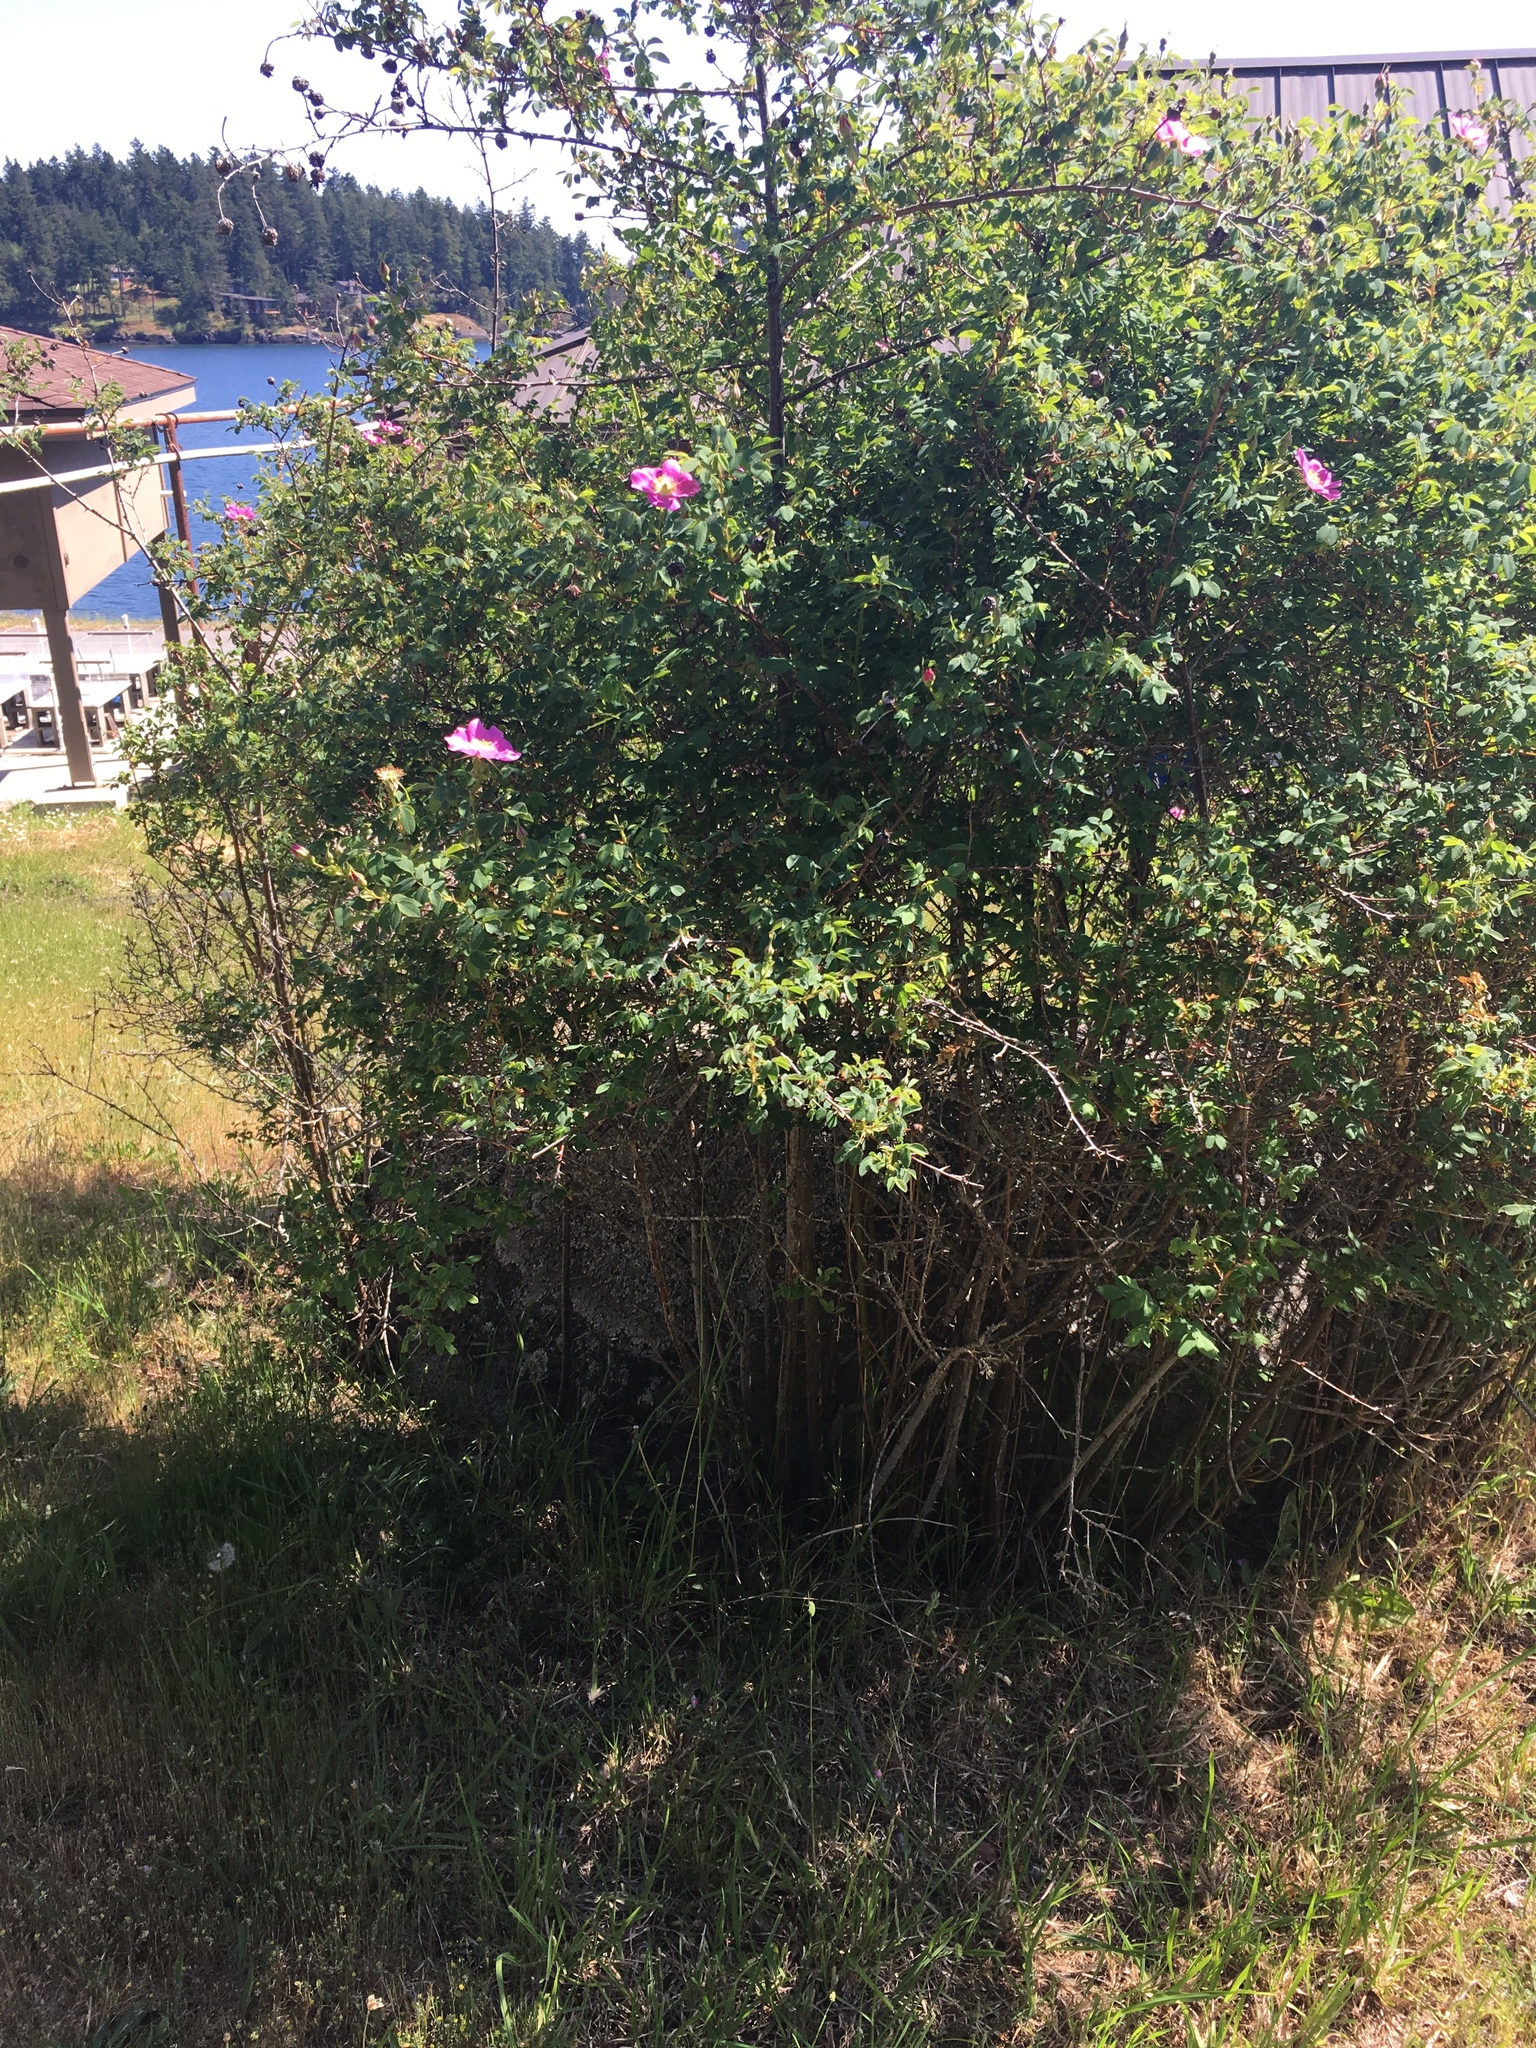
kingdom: Plantae
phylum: Tracheophyta
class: Magnoliopsida
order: Rosales
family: Rosaceae
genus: Rosa
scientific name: Rosa nutkana
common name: Nootka rose
